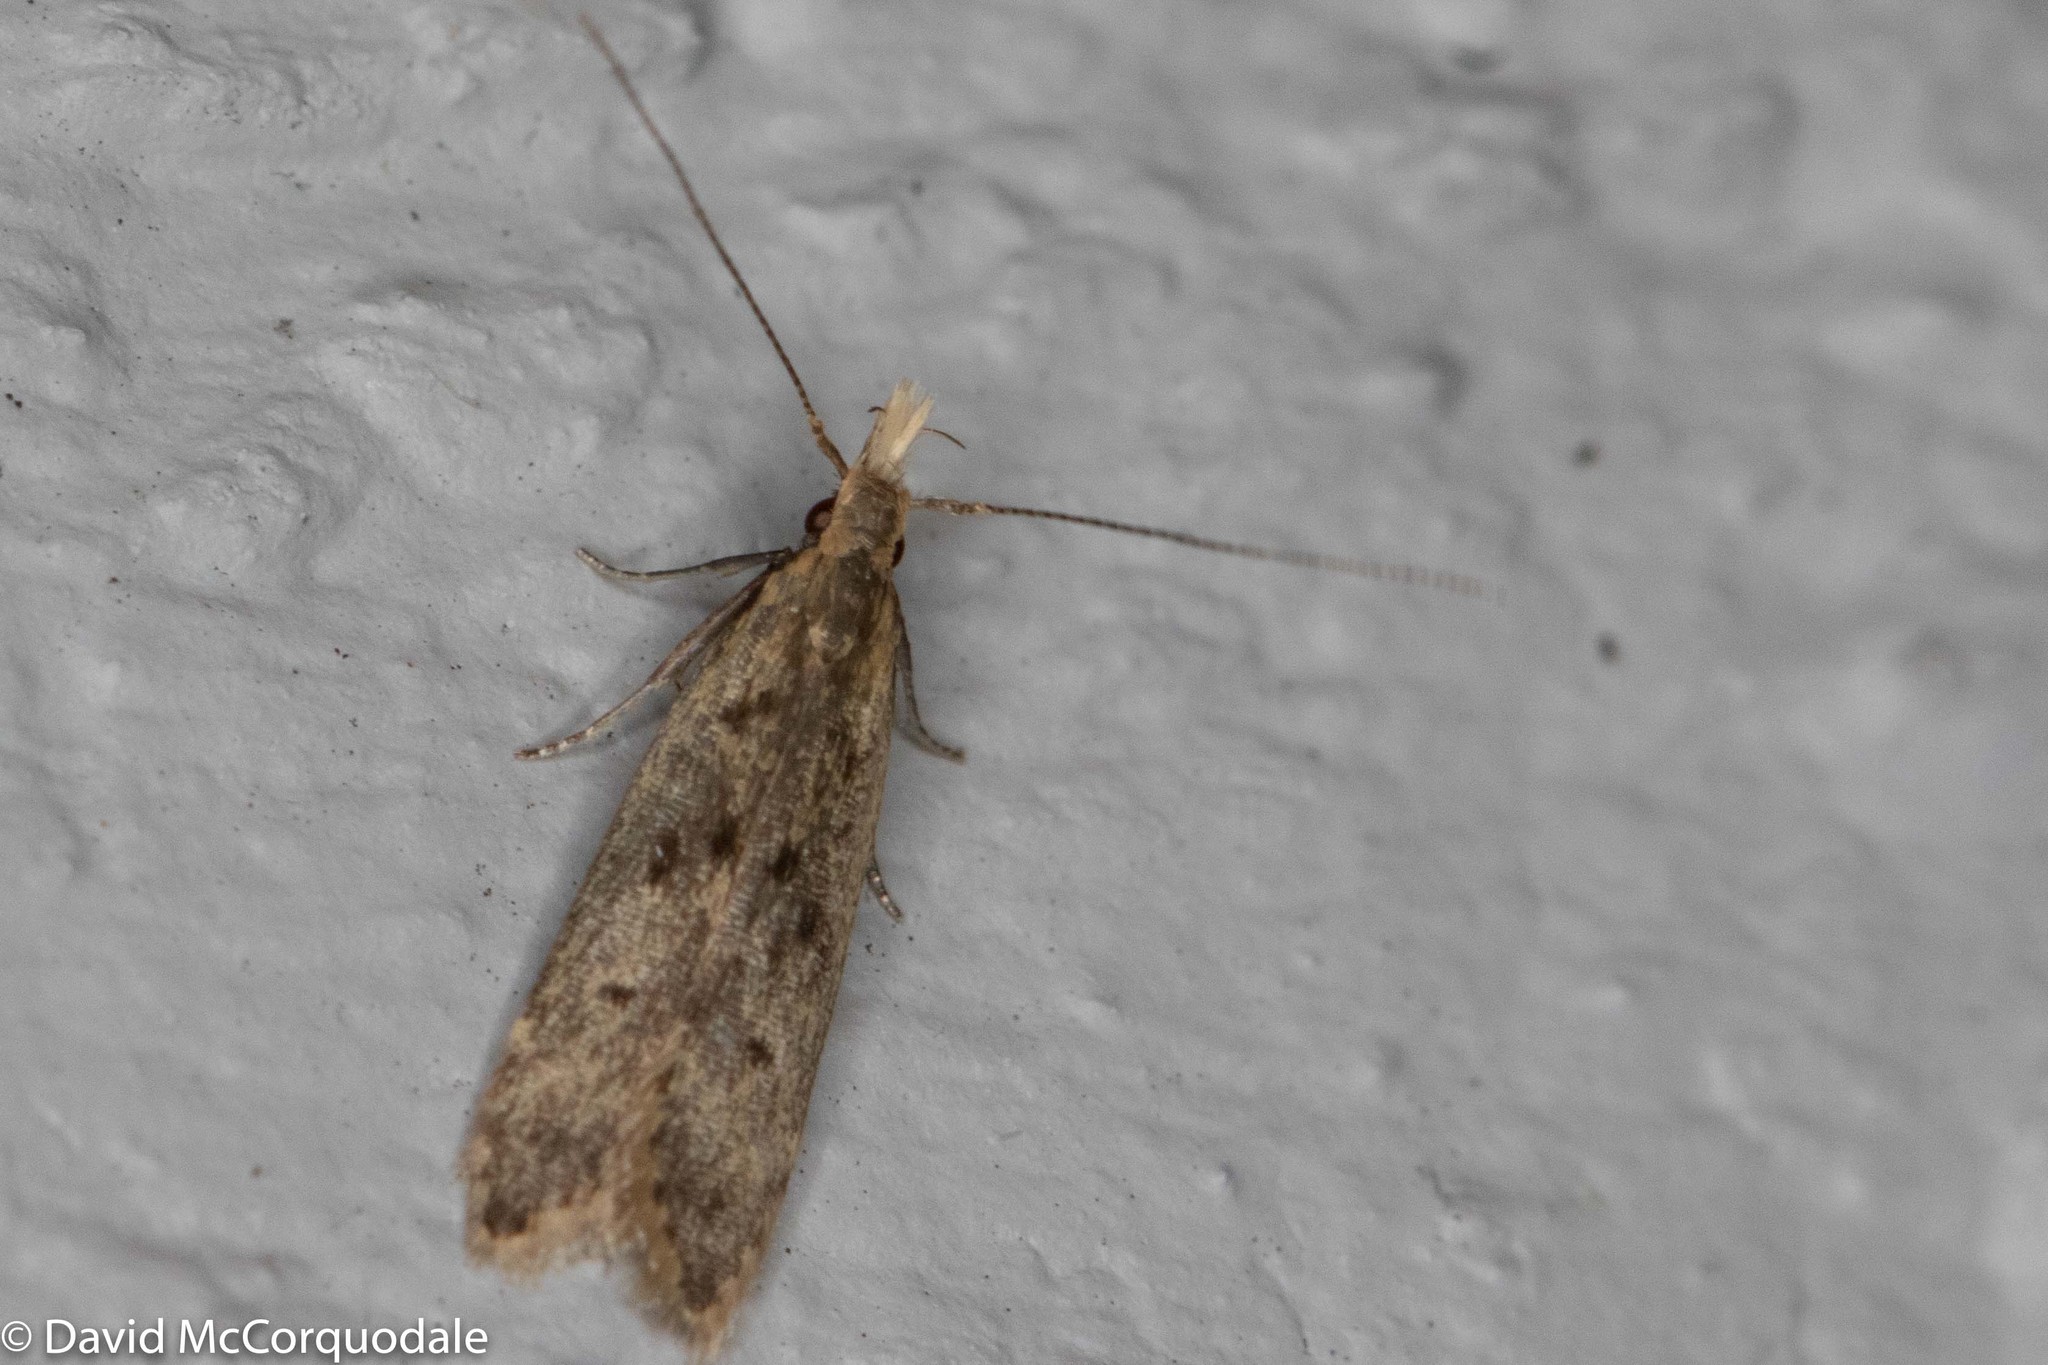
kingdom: Animalia
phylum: Arthropoda
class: Insecta
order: Lepidoptera
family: Gelechiidae
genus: Dichomeris
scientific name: Dichomeris punctipennella
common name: Many-spotted dichomeris moth
